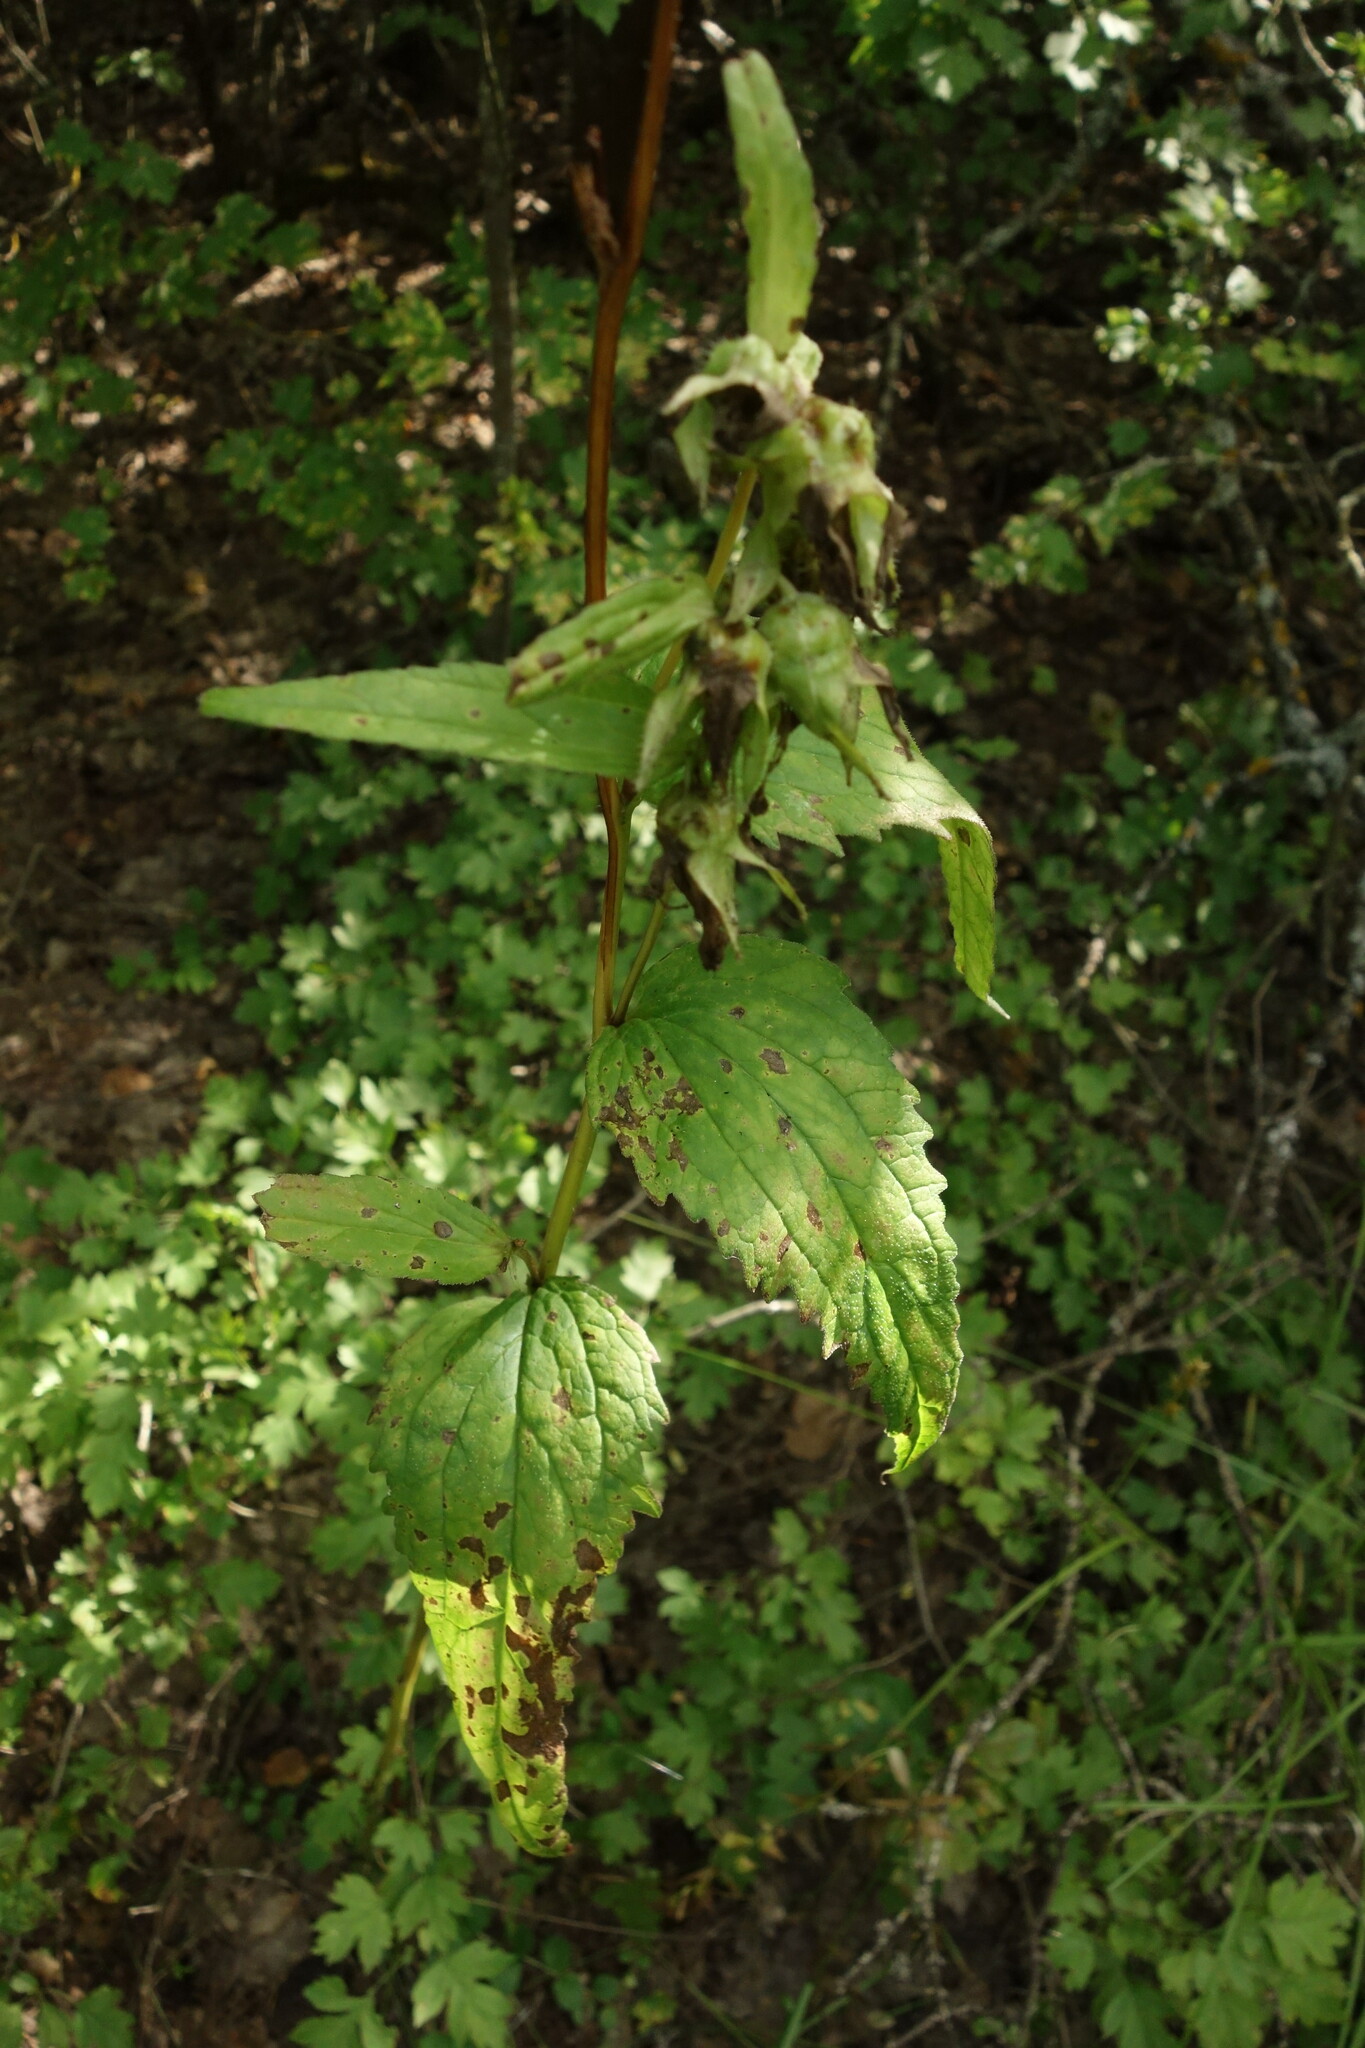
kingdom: Plantae
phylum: Tracheophyta
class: Magnoliopsida
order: Asterales
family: Campanulaceae
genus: Campanula
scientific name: Campanula trachelium
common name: Nettle-leaved bellflower
